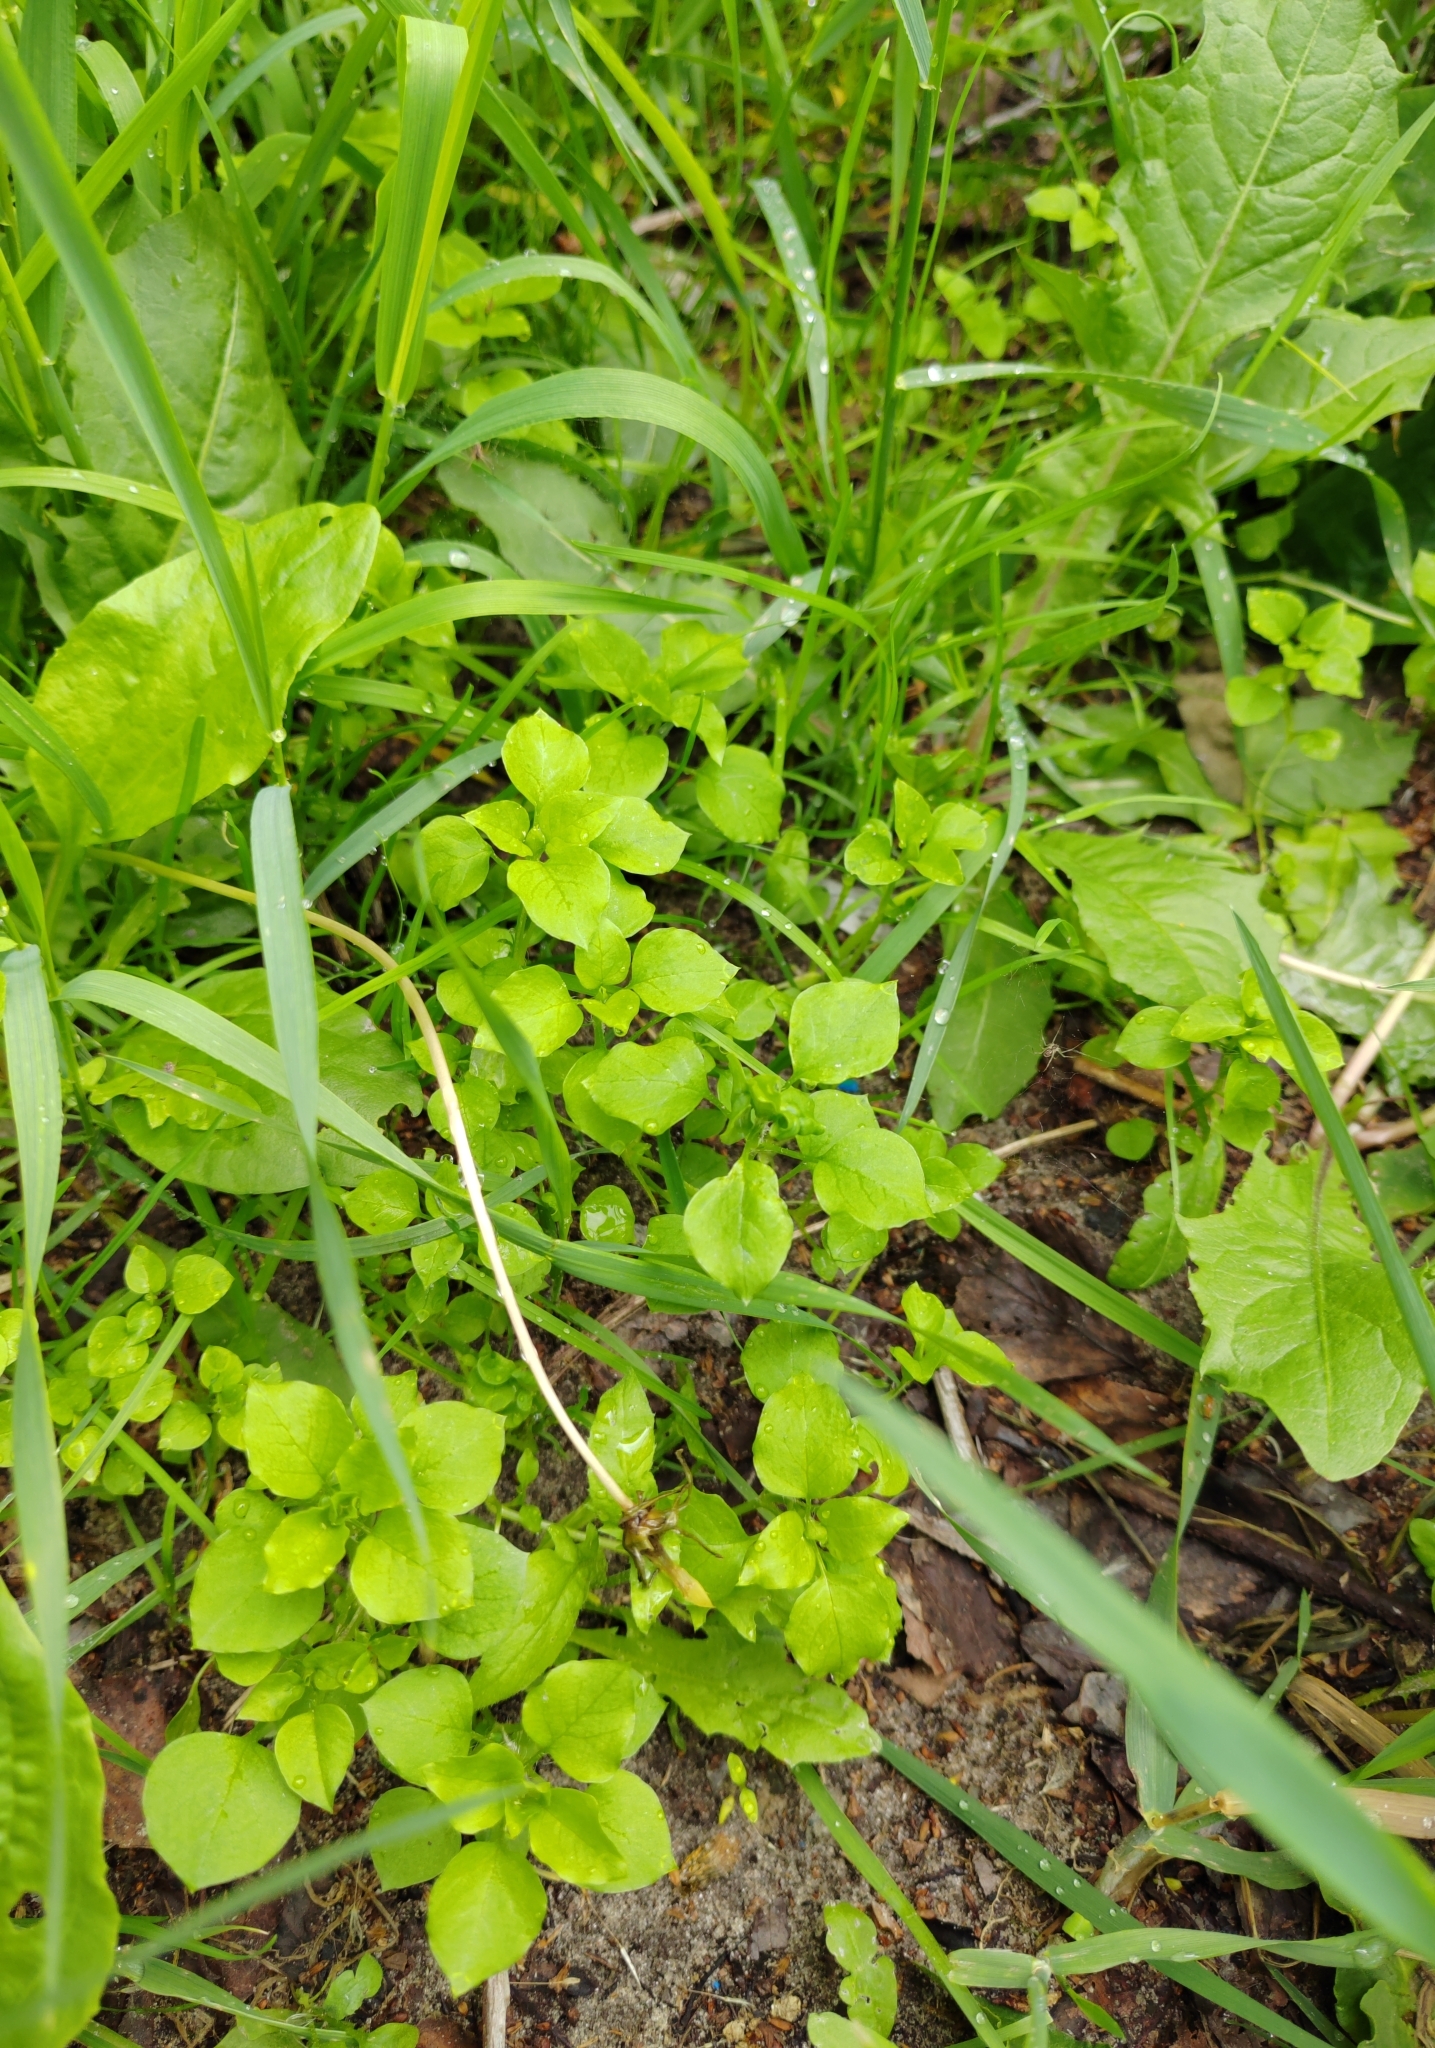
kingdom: Plantae
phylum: Tracheophyta
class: Magnoliopsida
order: Caryophyllales
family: Caryophyllaceae
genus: Stellaria
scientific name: Stellaria media
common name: Common chickweed
